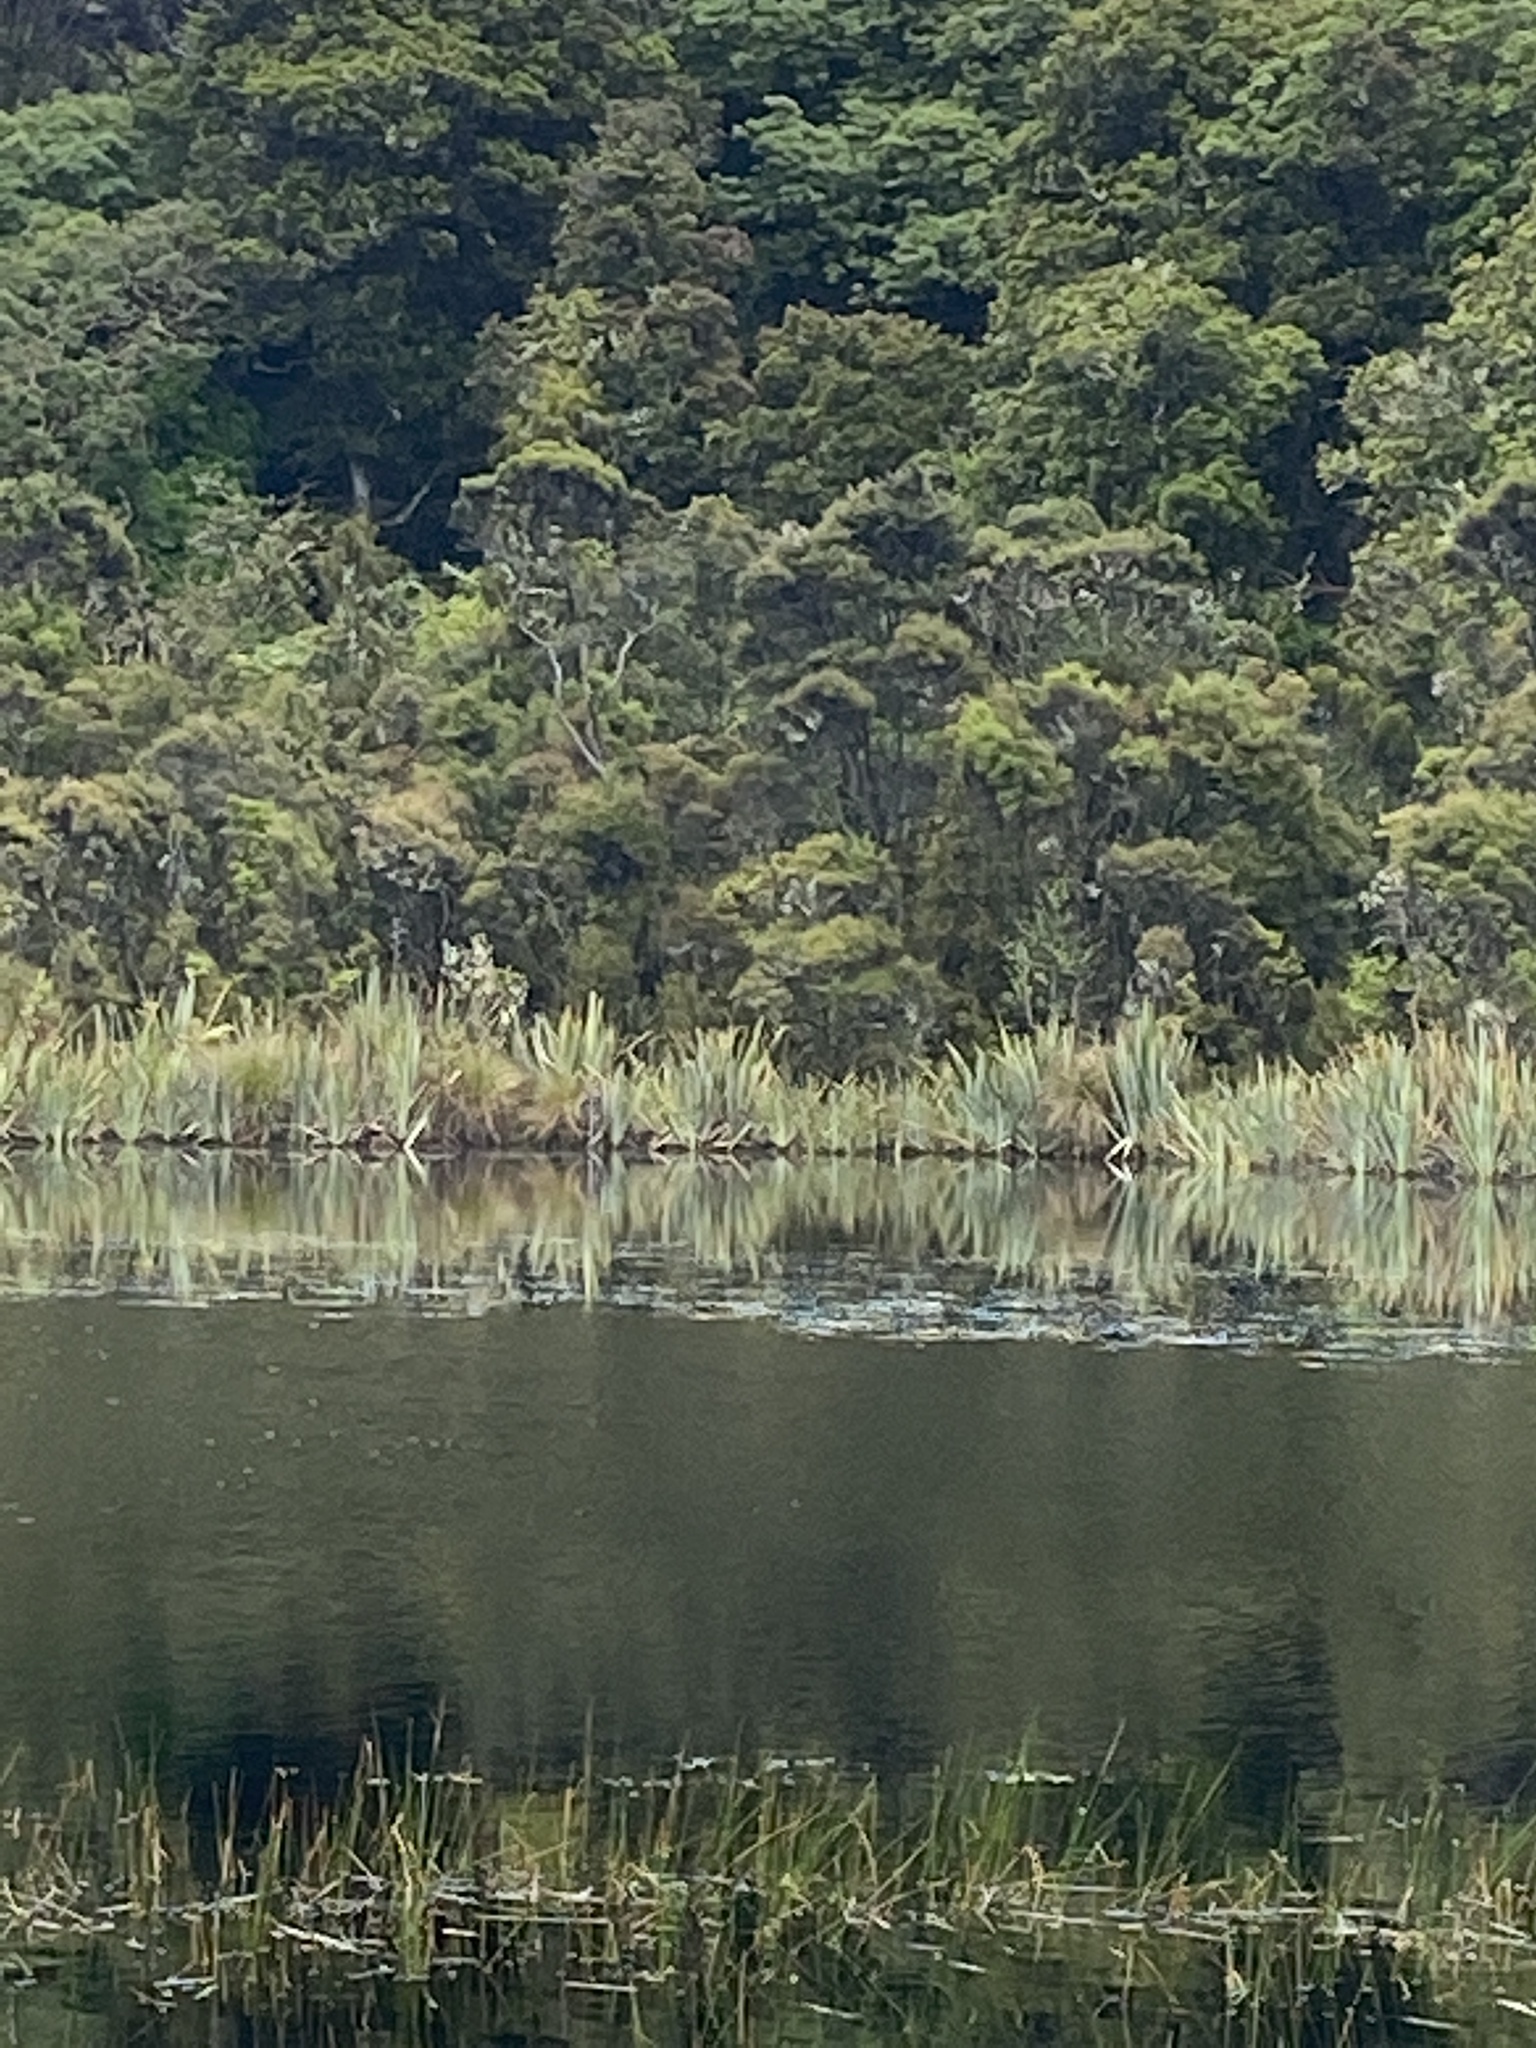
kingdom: Plantae
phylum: Tracheophyta
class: Liliopsida
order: Asparagales
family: Asphodelaceae
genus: Phormium
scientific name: Phormium tenax
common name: New zealand flax
